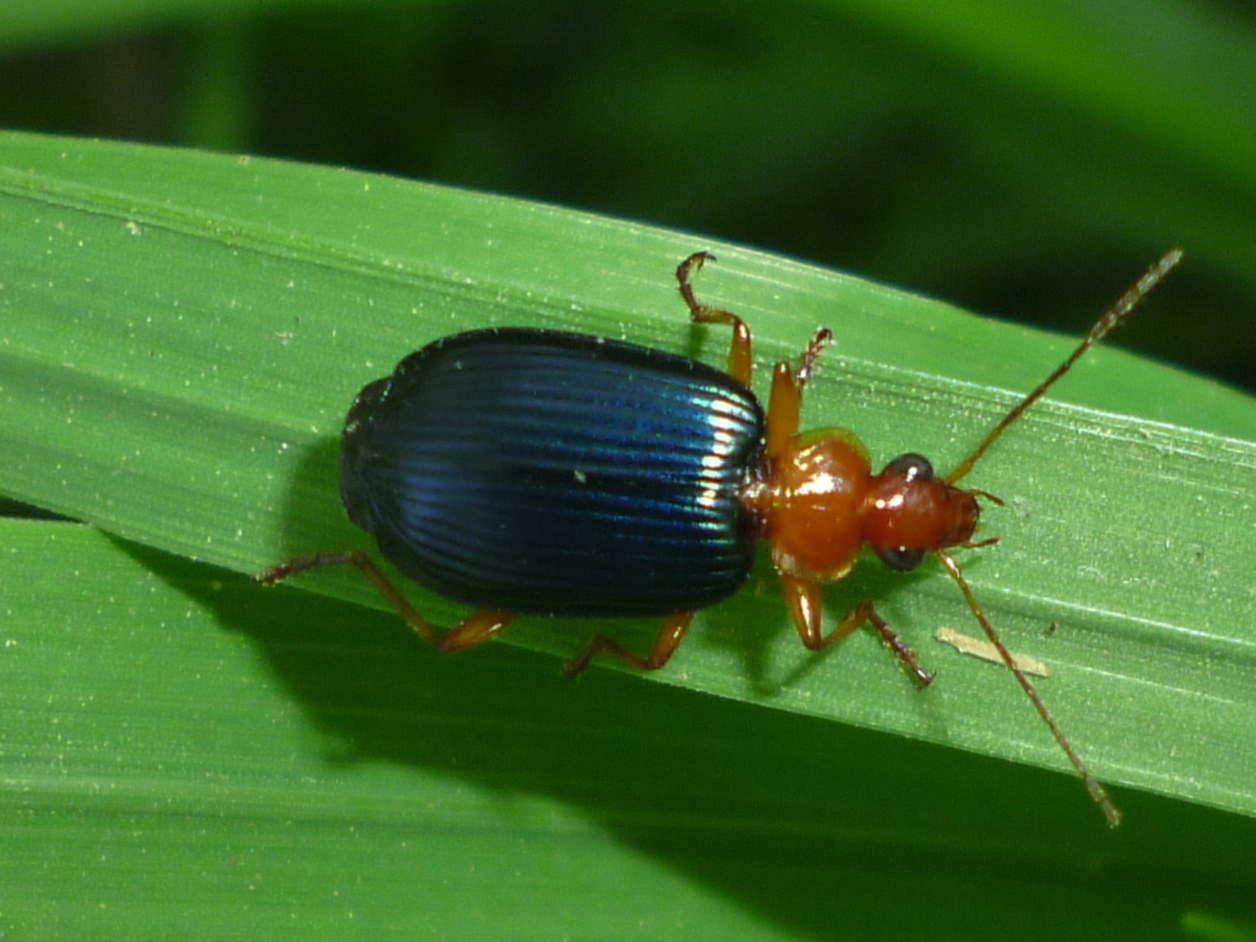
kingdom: Animalia
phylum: Arthropoda
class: Insecta
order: Coleoptera
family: Carabidae
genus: Lebia
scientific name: Lebia grandis
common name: Large foliage ground beetle
